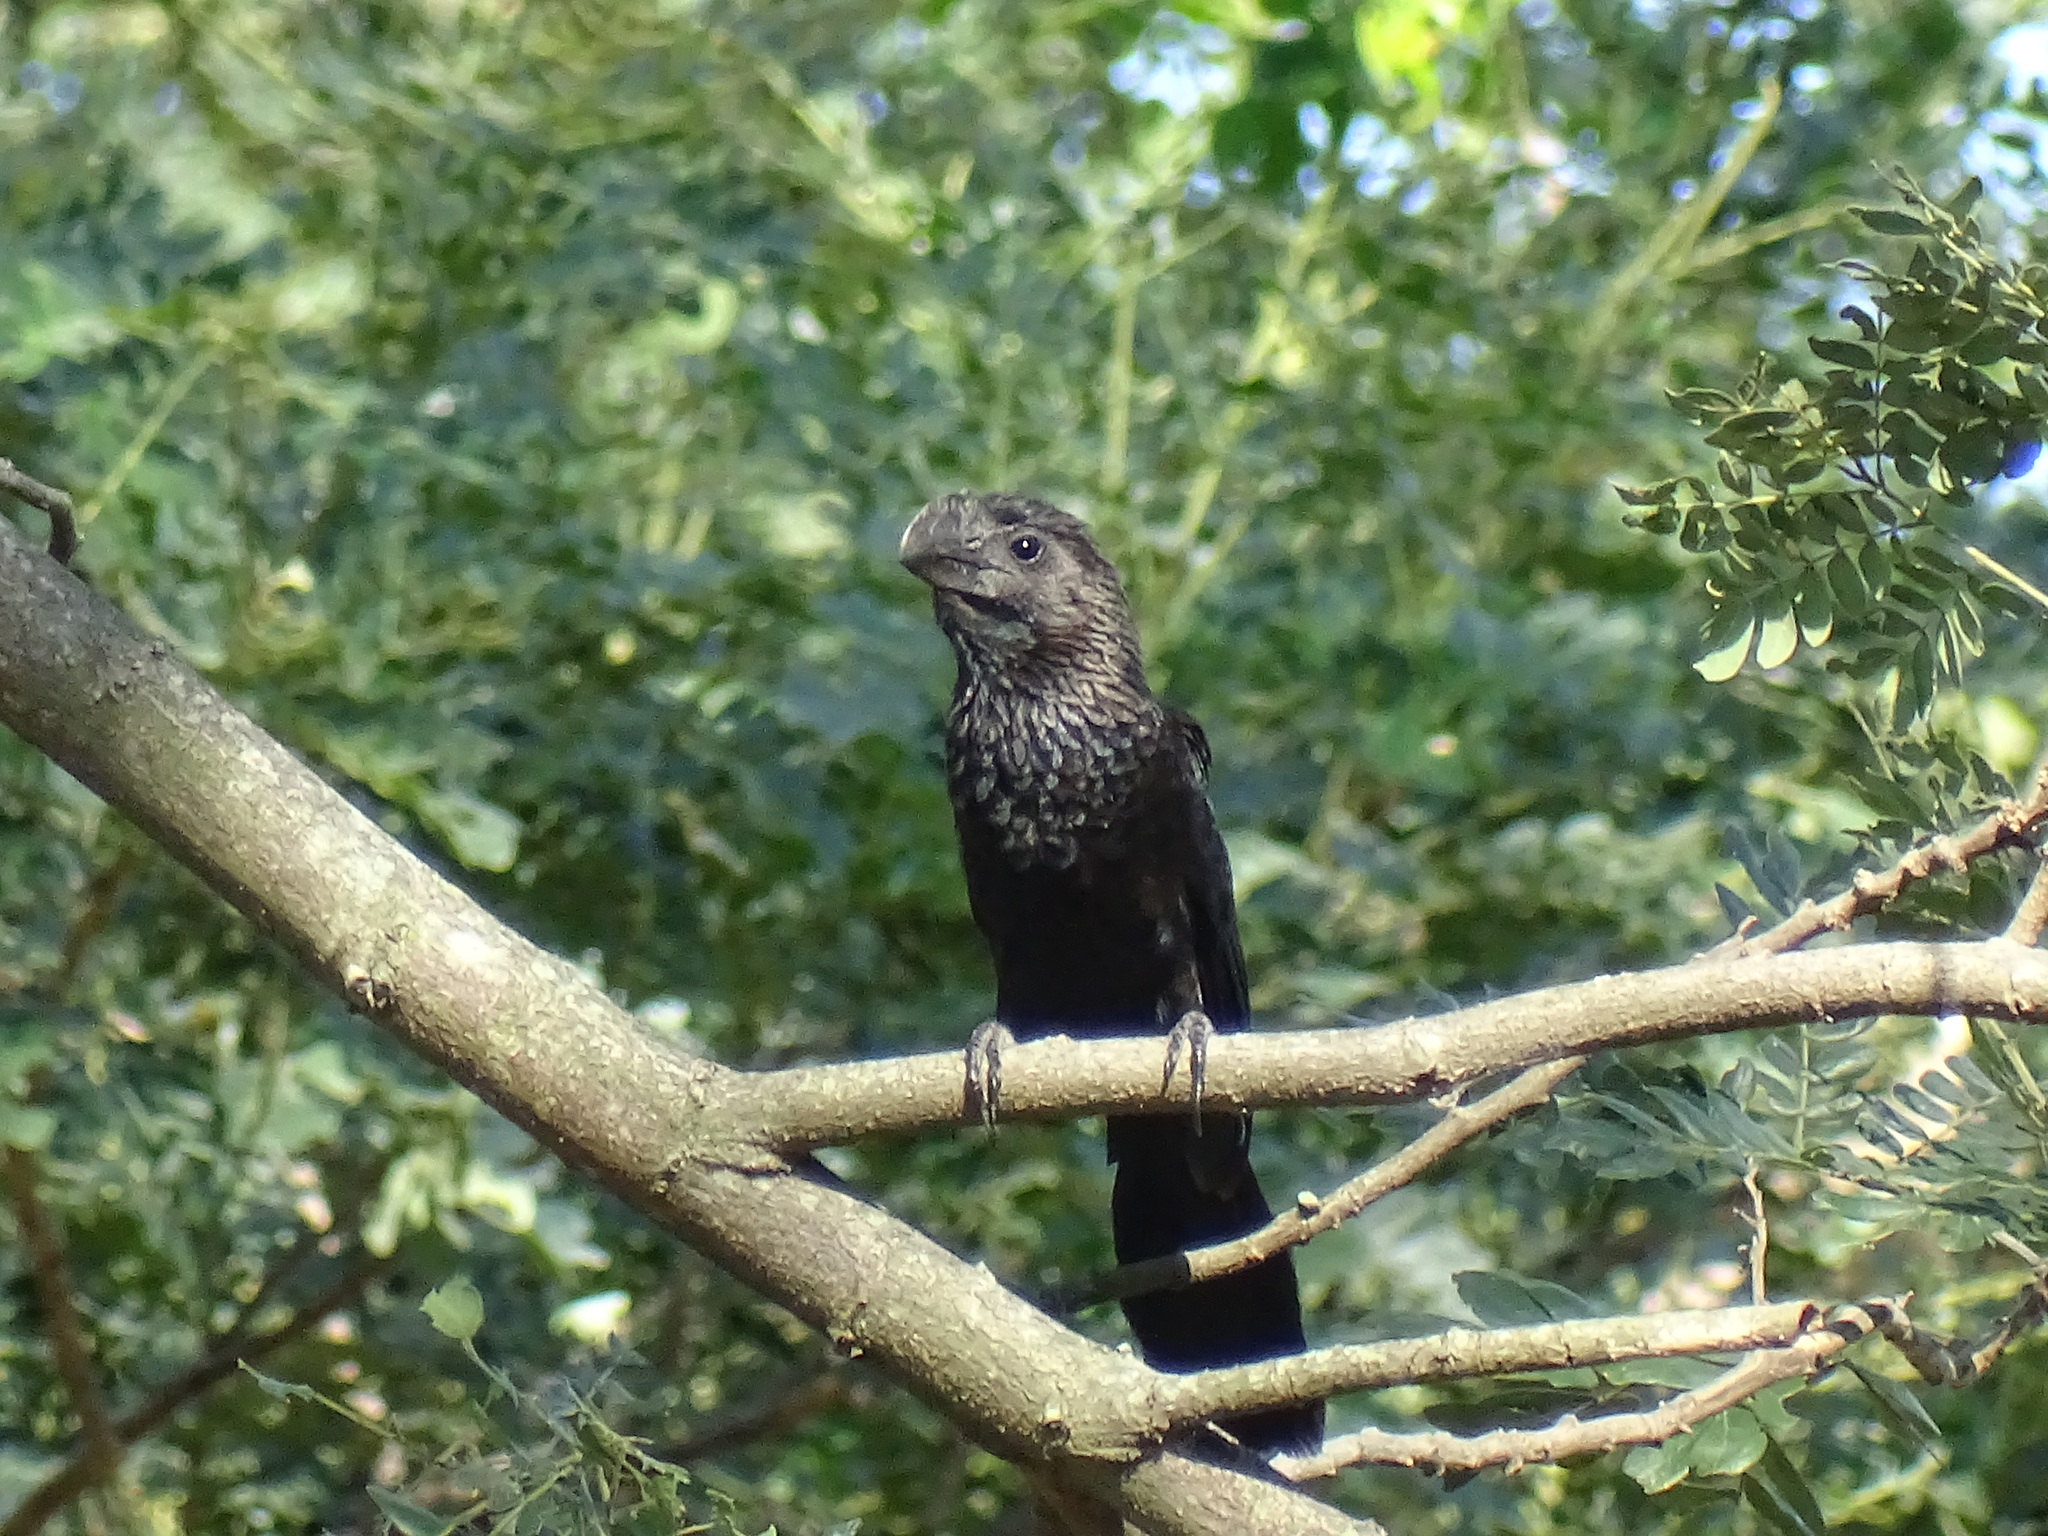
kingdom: Animalia
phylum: Chordata
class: Aves
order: Cuculiformes
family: Cuculidae
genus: Crotophaga
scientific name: Crotophaga ani
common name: Smooth-billed ani
